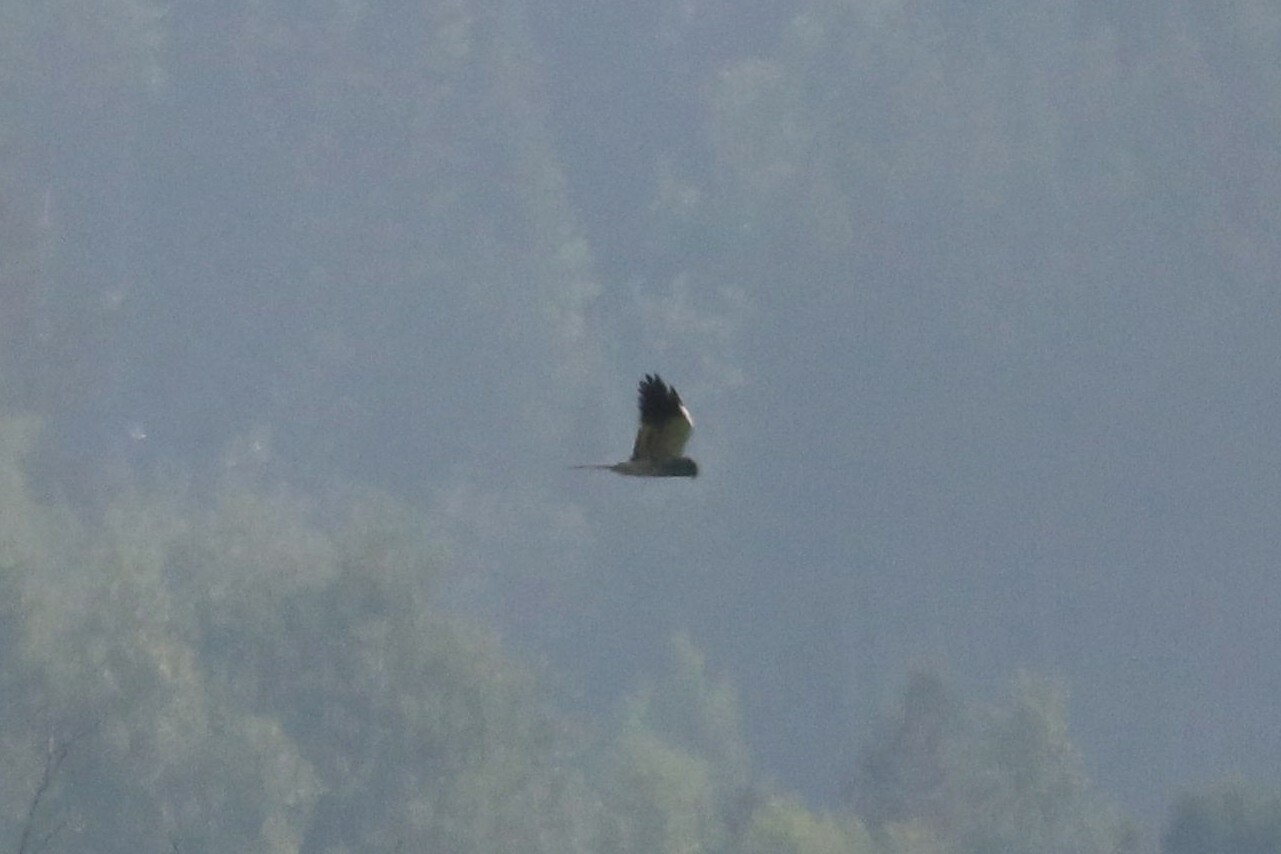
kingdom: Animalia
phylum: Chordata
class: Aves
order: Accipitriformes
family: Accipitridae
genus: Circus
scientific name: Circus pygargus
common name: Montagu's harrier
